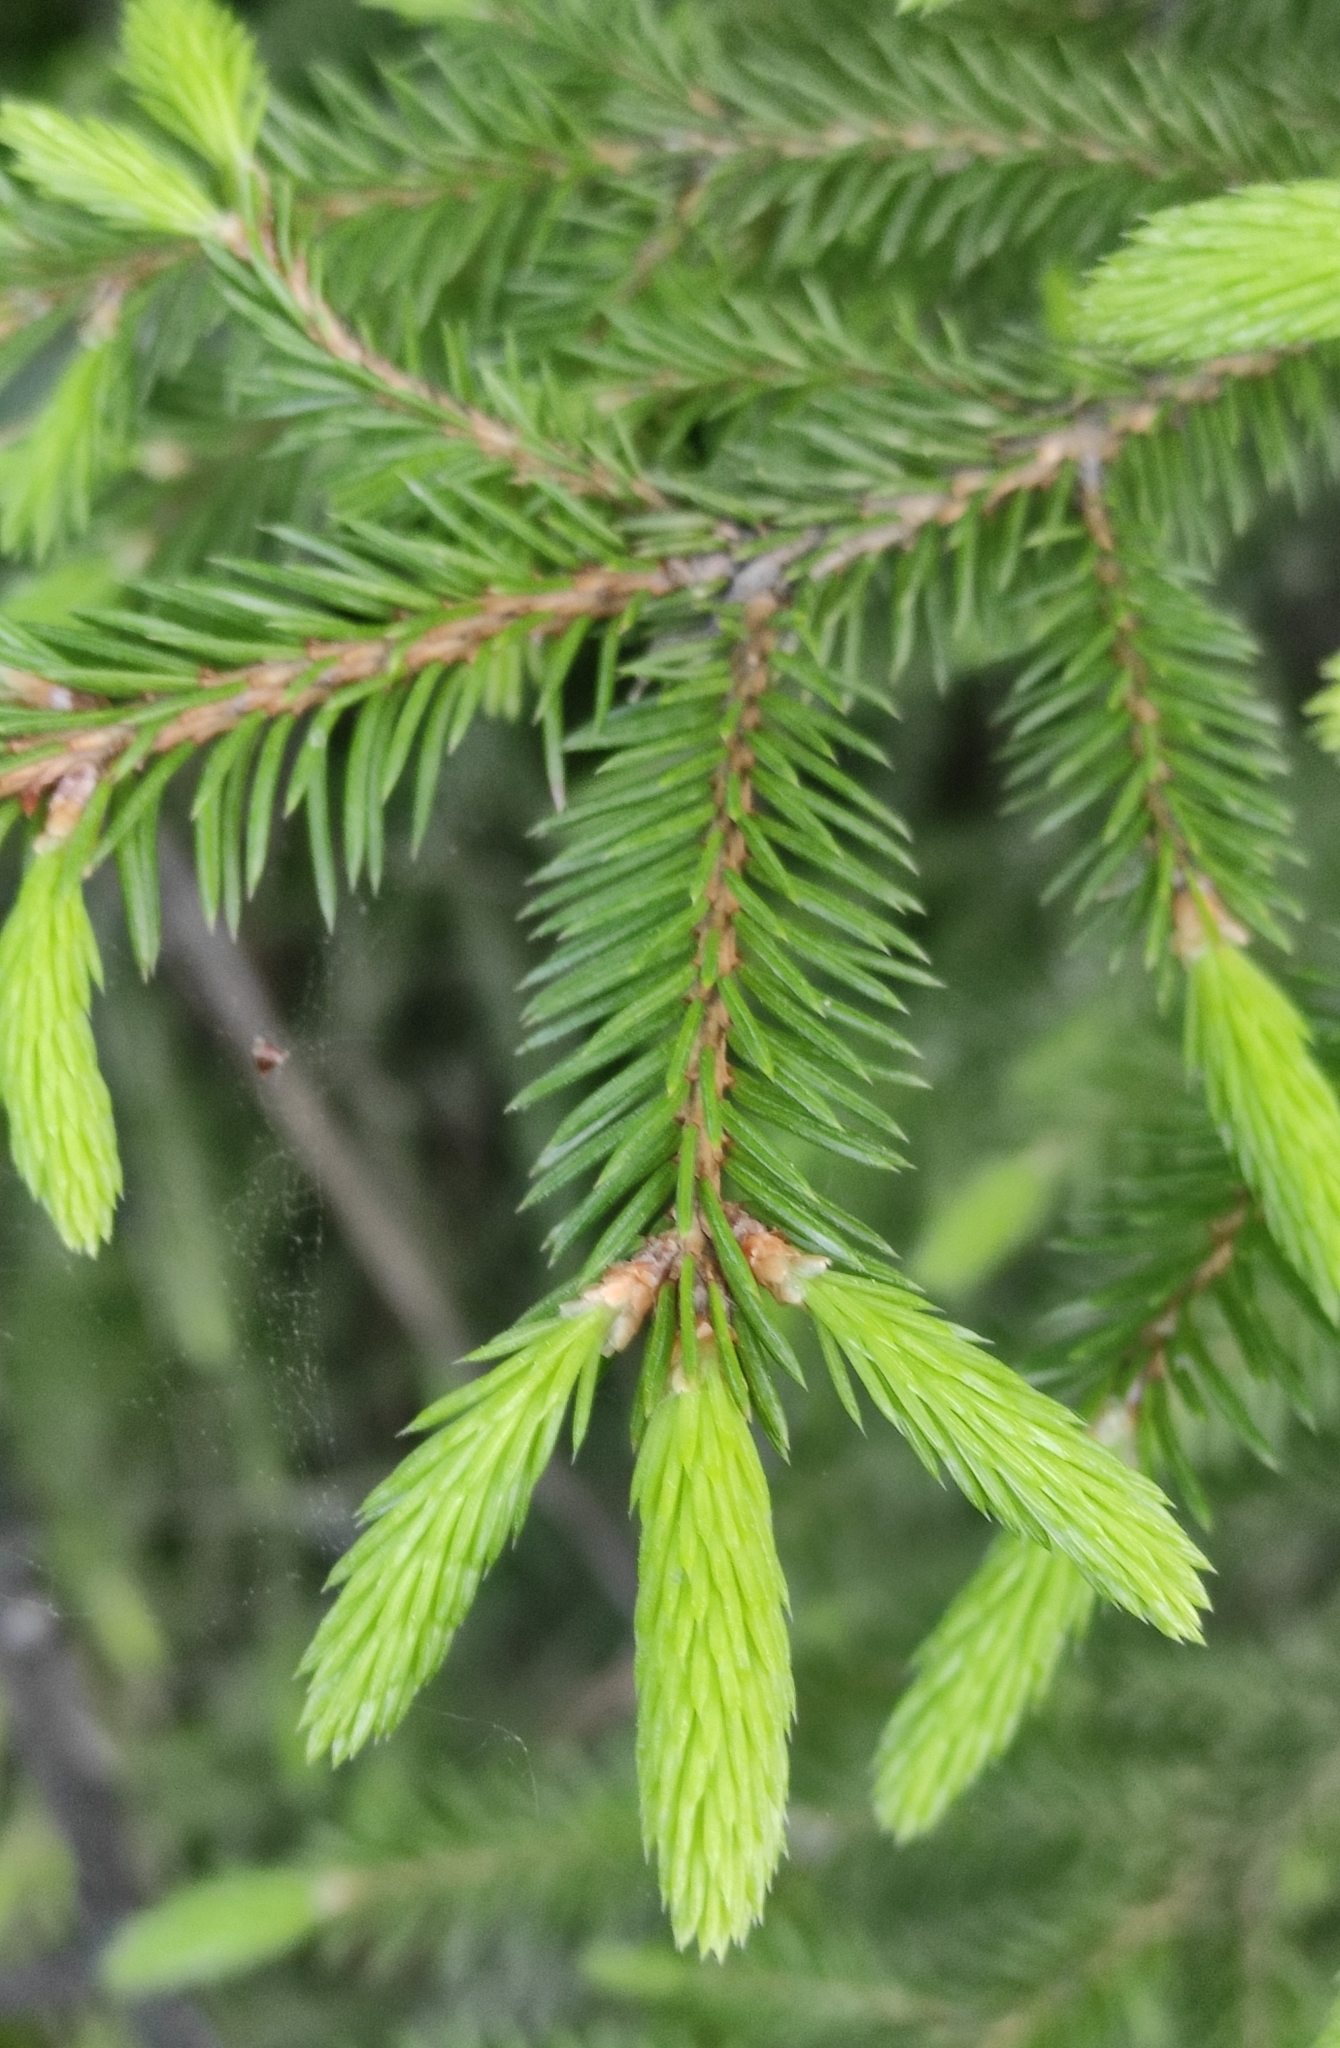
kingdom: Plantae
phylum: Tracheophyta
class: Pinopsida
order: Pinales
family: Pinaceae
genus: Picea
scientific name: Picea obovata
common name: Siberian spruce
